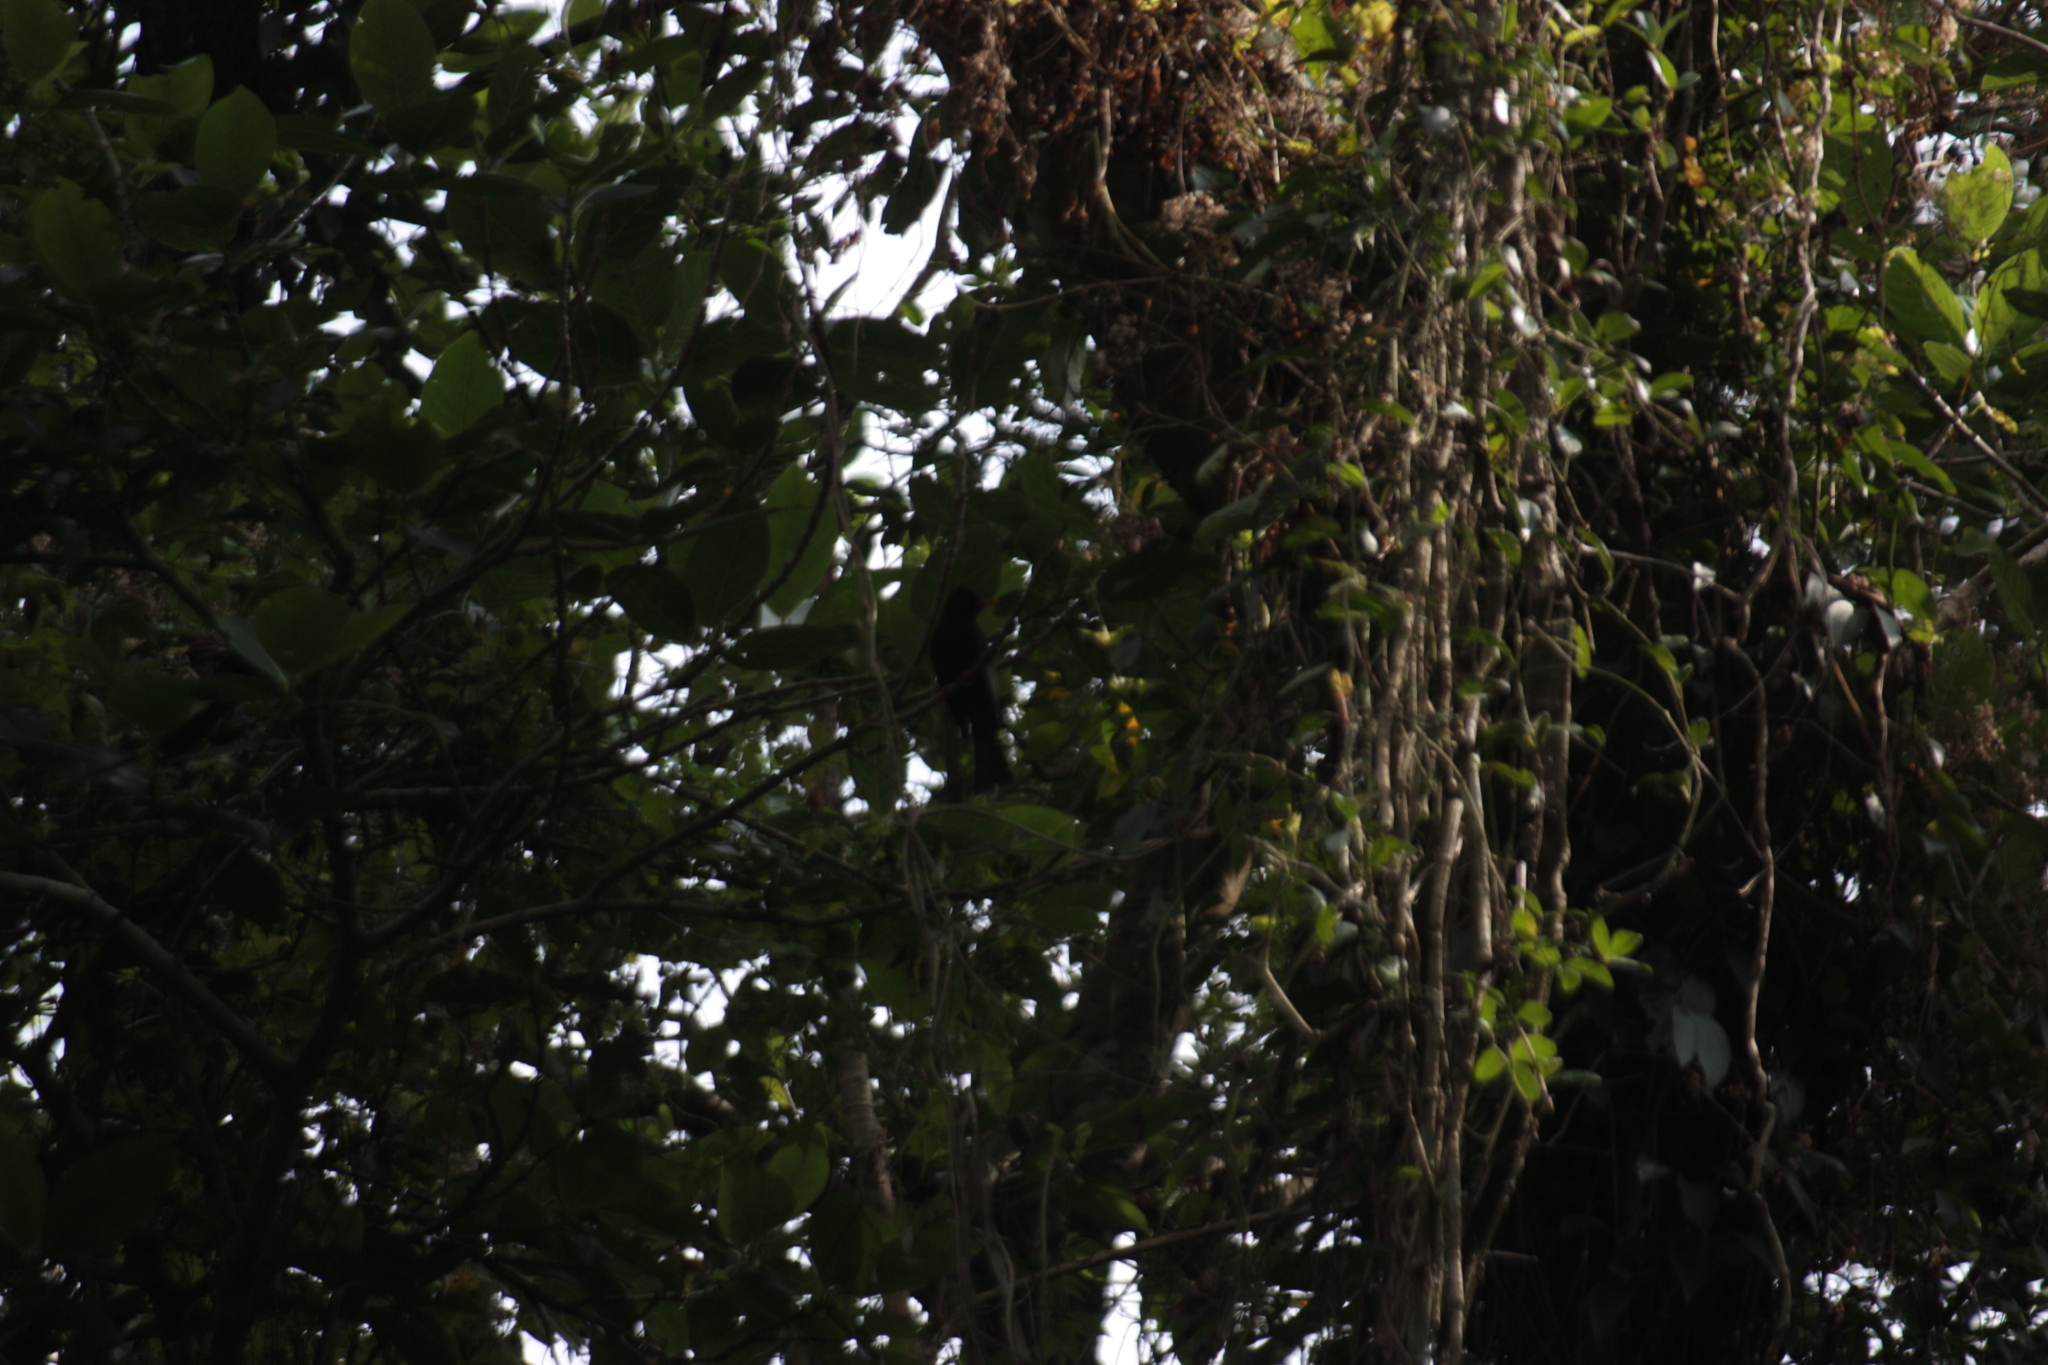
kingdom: Animalia
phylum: Chordata
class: Aves
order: Passeriformes
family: Pycnonotidae
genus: Hypsipetes
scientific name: Hypsipetes leucocephalus
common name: Black bulbul
